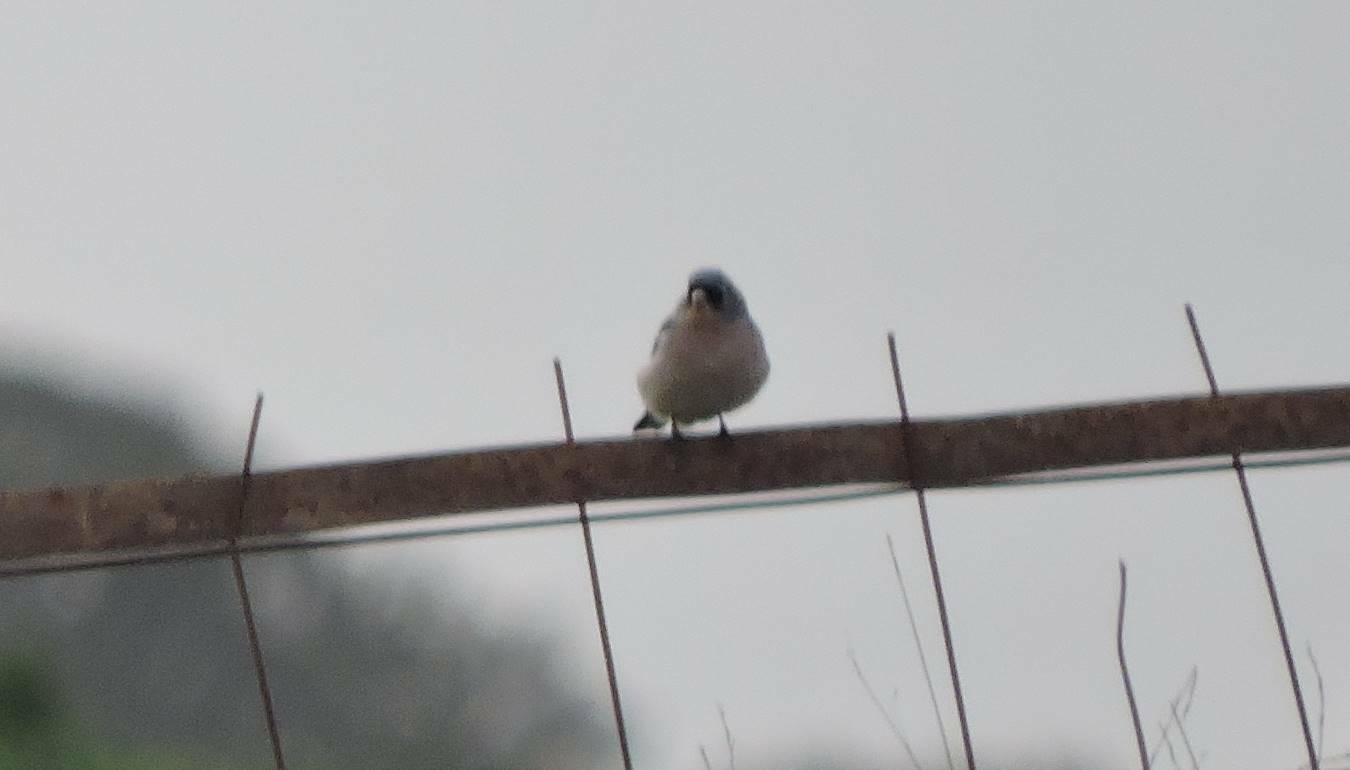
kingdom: Animalia
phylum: Chordata
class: Aves
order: Passeriformes
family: Fringillidae
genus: Fringilla
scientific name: Fringilla spodiogenys
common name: African chaffinch
